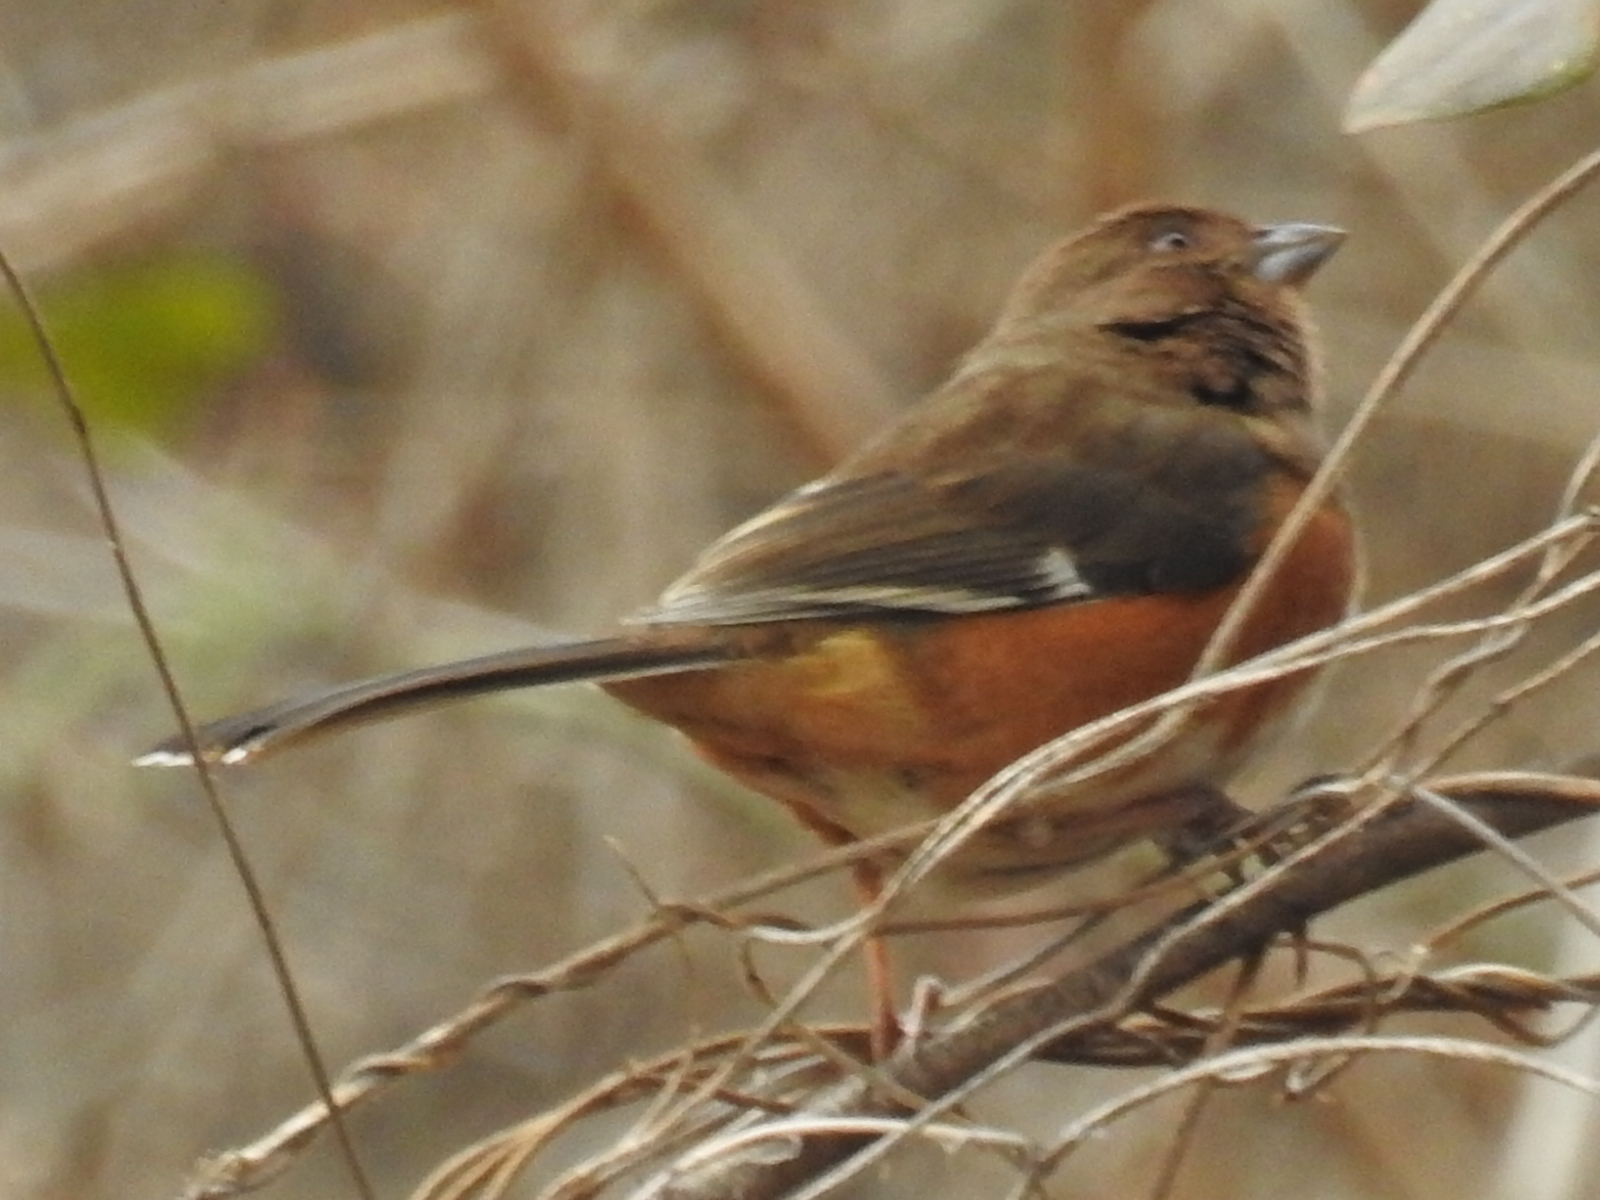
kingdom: Animalia
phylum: Chordata
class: Aves
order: Passeriformes
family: Passerellidae
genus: Pipilo
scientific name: Pipilo erythrophthalmus
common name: Eastern towhee
